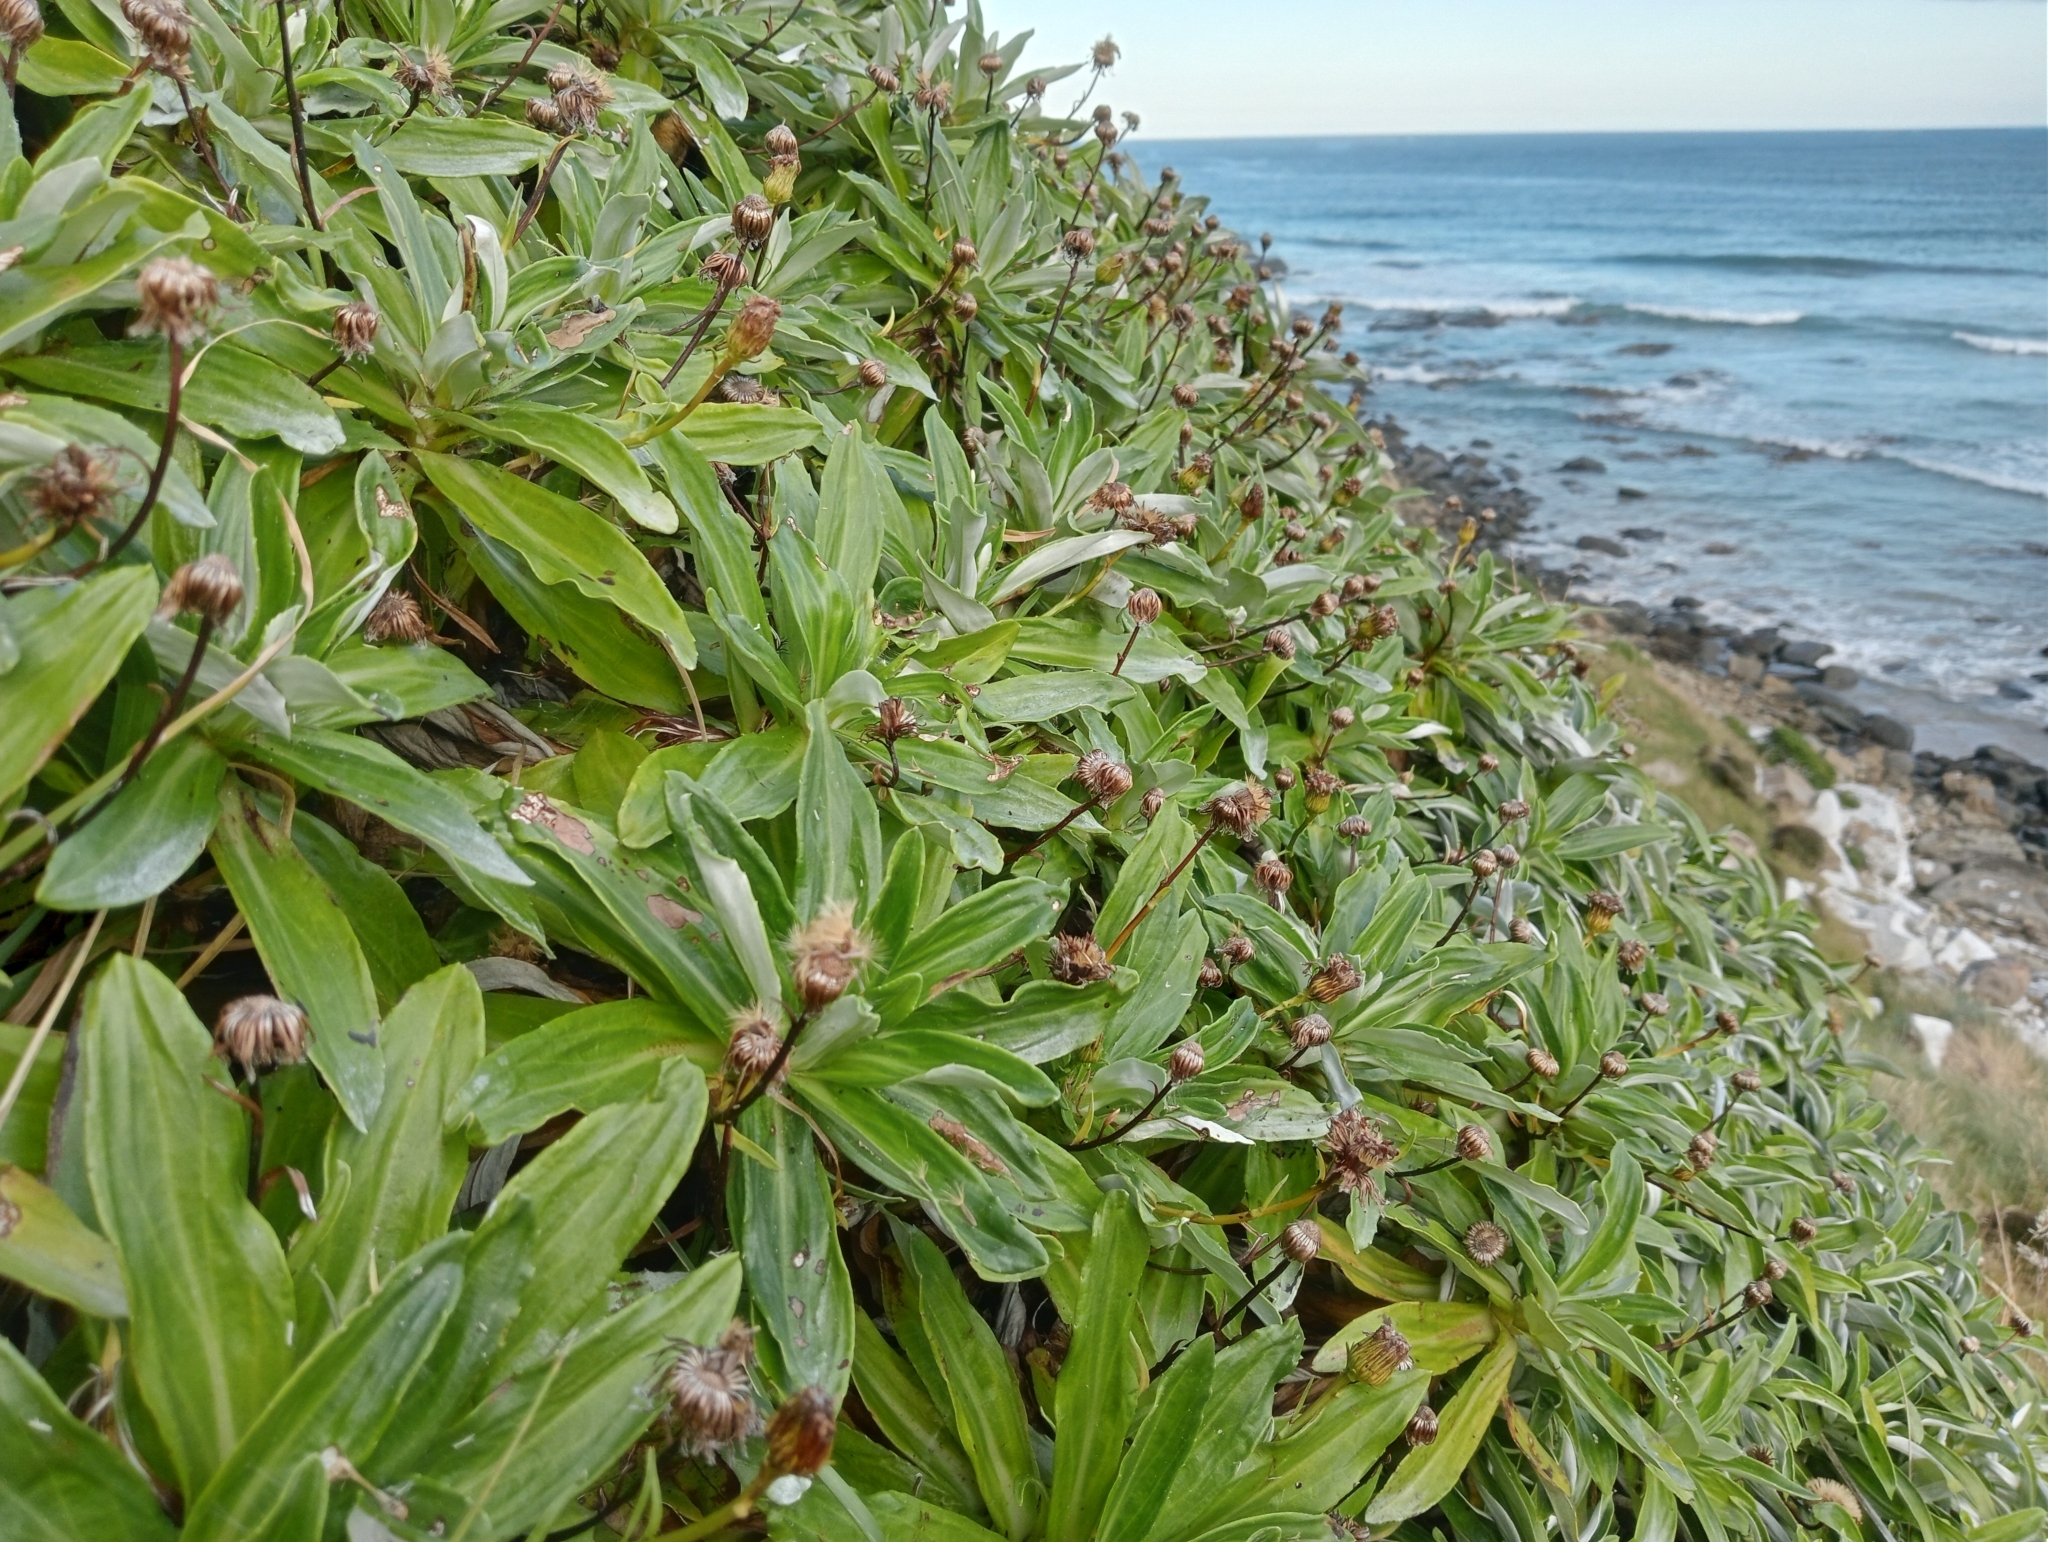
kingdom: Plantae
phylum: Tracheophyta
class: Magnoliopsida
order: Asterales
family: Asteraceae
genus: Celmisia
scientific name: Celmisia lindsayi
